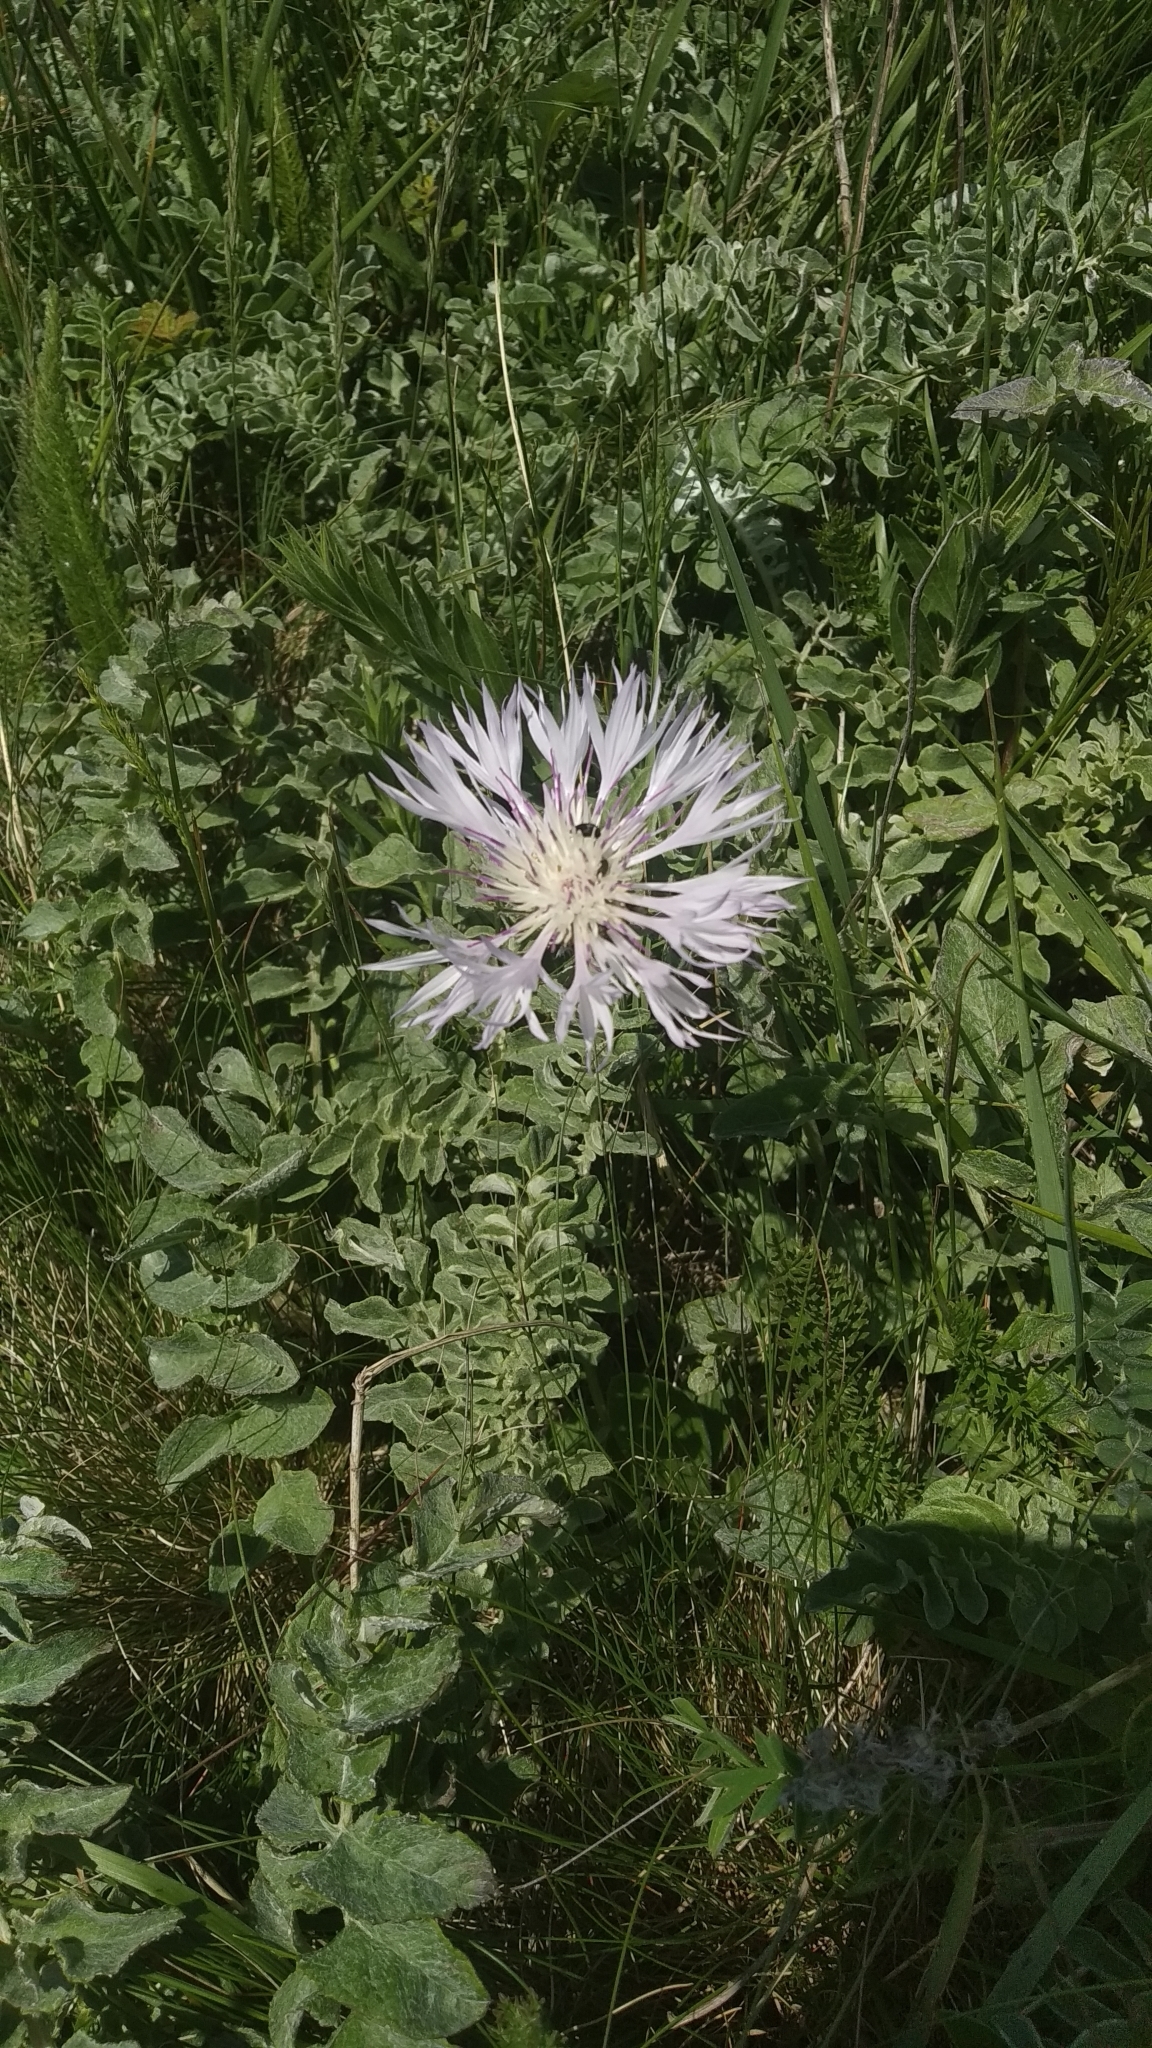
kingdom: Plantae
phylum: Tracheophyta
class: Magnoliopsida
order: Asterales
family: Asteraceae
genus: Psephellus
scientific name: Psephellus declinatus
